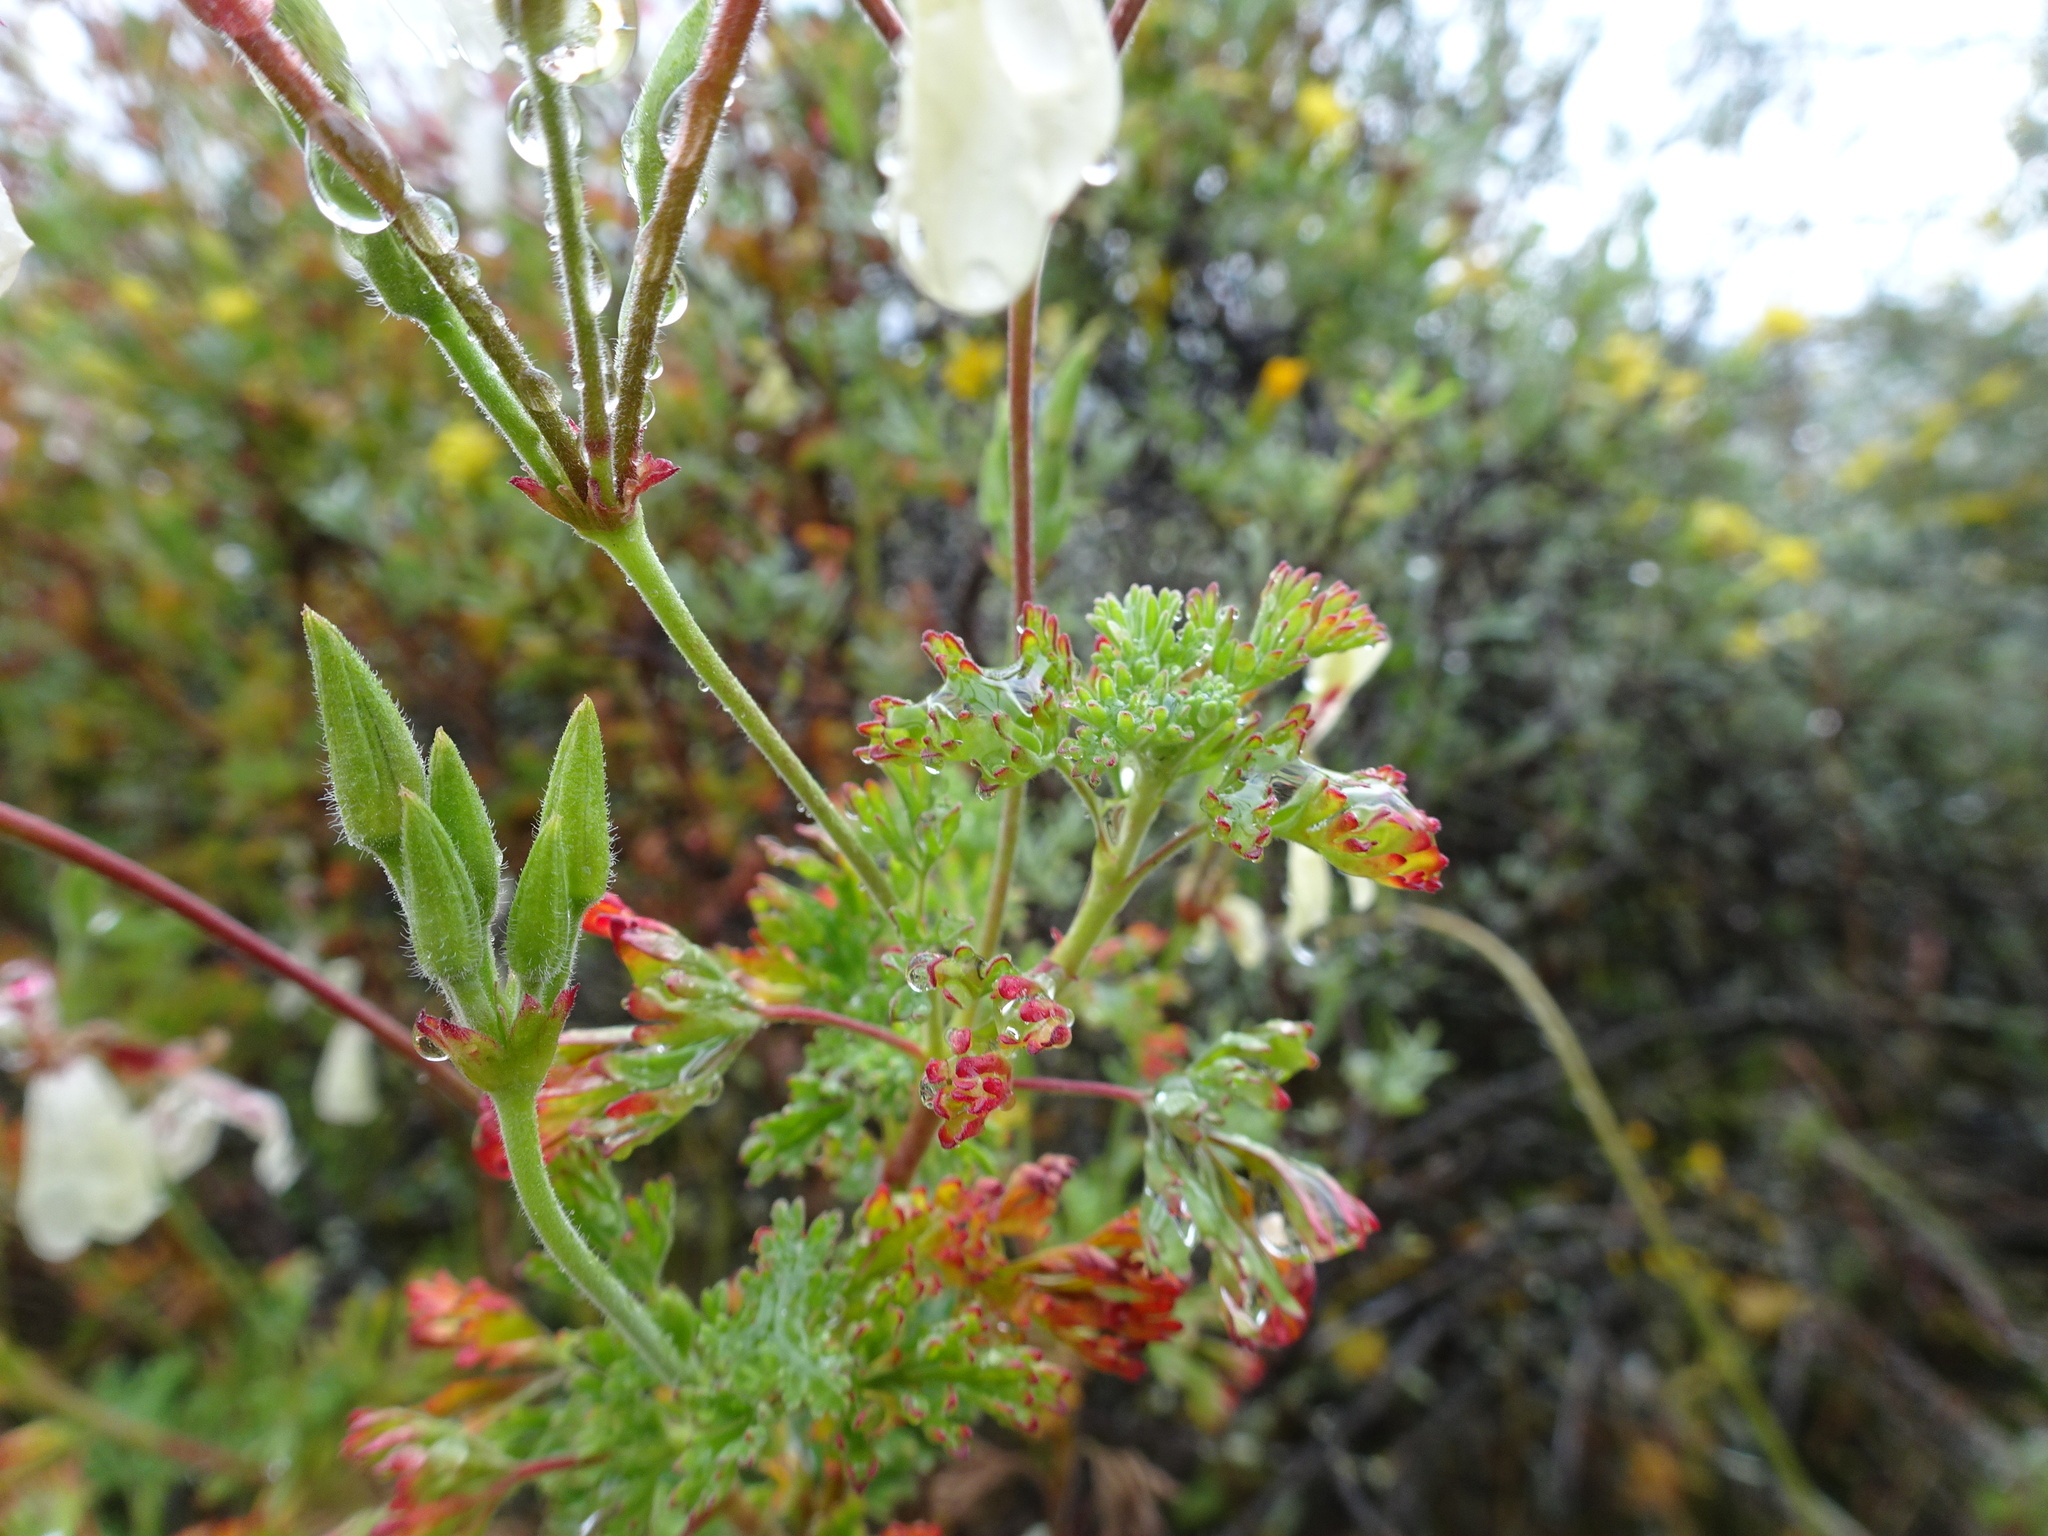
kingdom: Plantae
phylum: Tracheophyta
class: Magnoliopsida
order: Geraniales
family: Geraniaceae
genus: Pelargonium
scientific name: Pelargonium abrotanifolium
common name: Southernwood geranium
